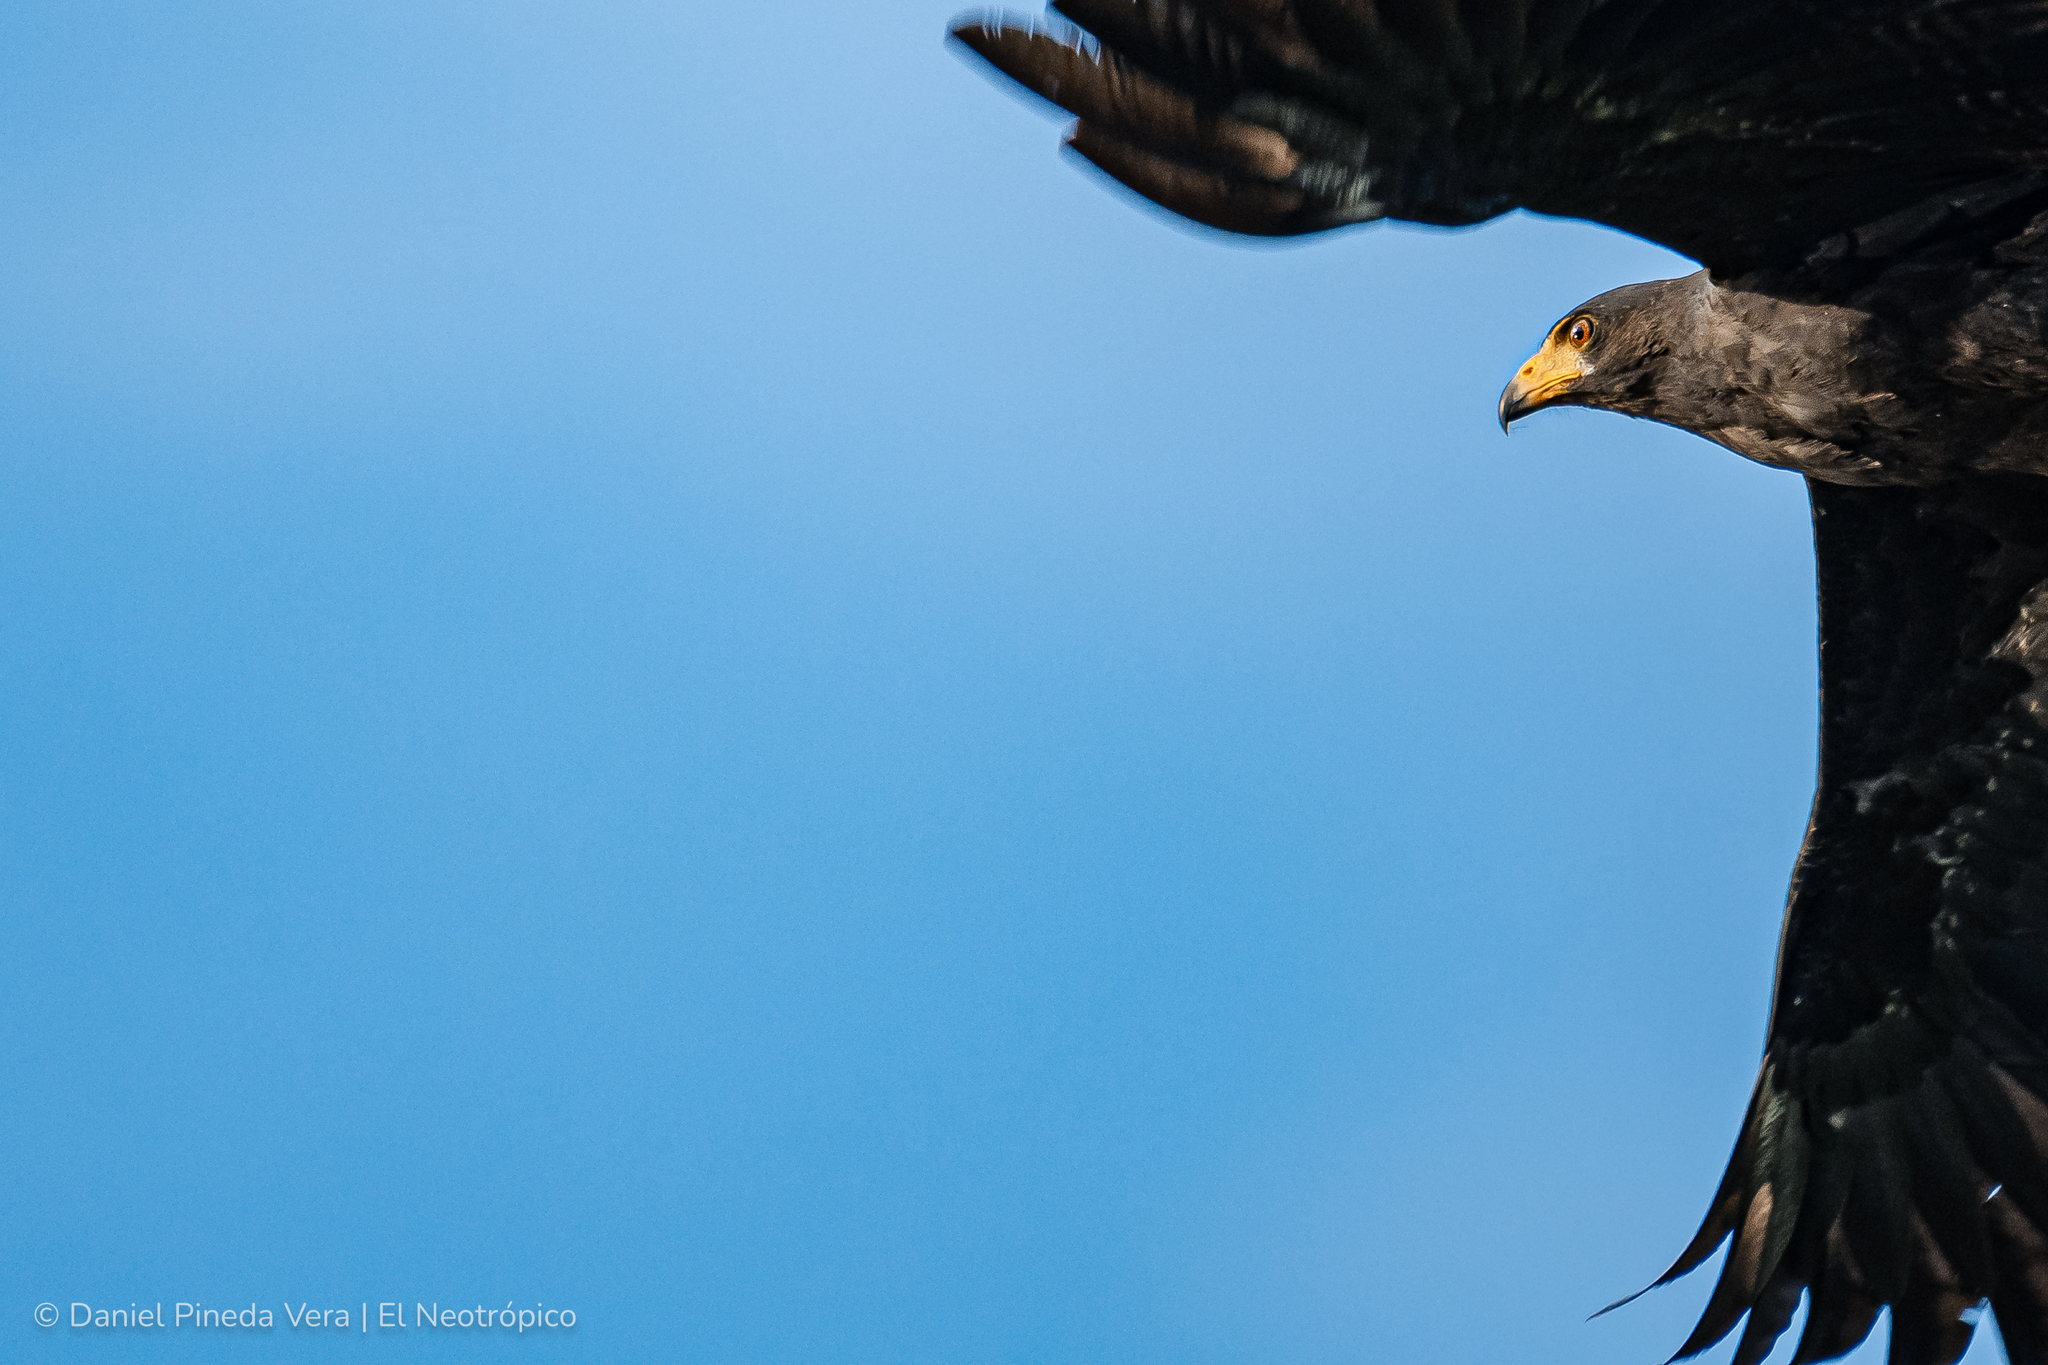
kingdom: Animalia
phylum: Chordata
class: Aves
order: Accipitriformes
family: Accipitridae
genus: Buteogallus
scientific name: Buteogallus anthracinus
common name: Common black hawk
